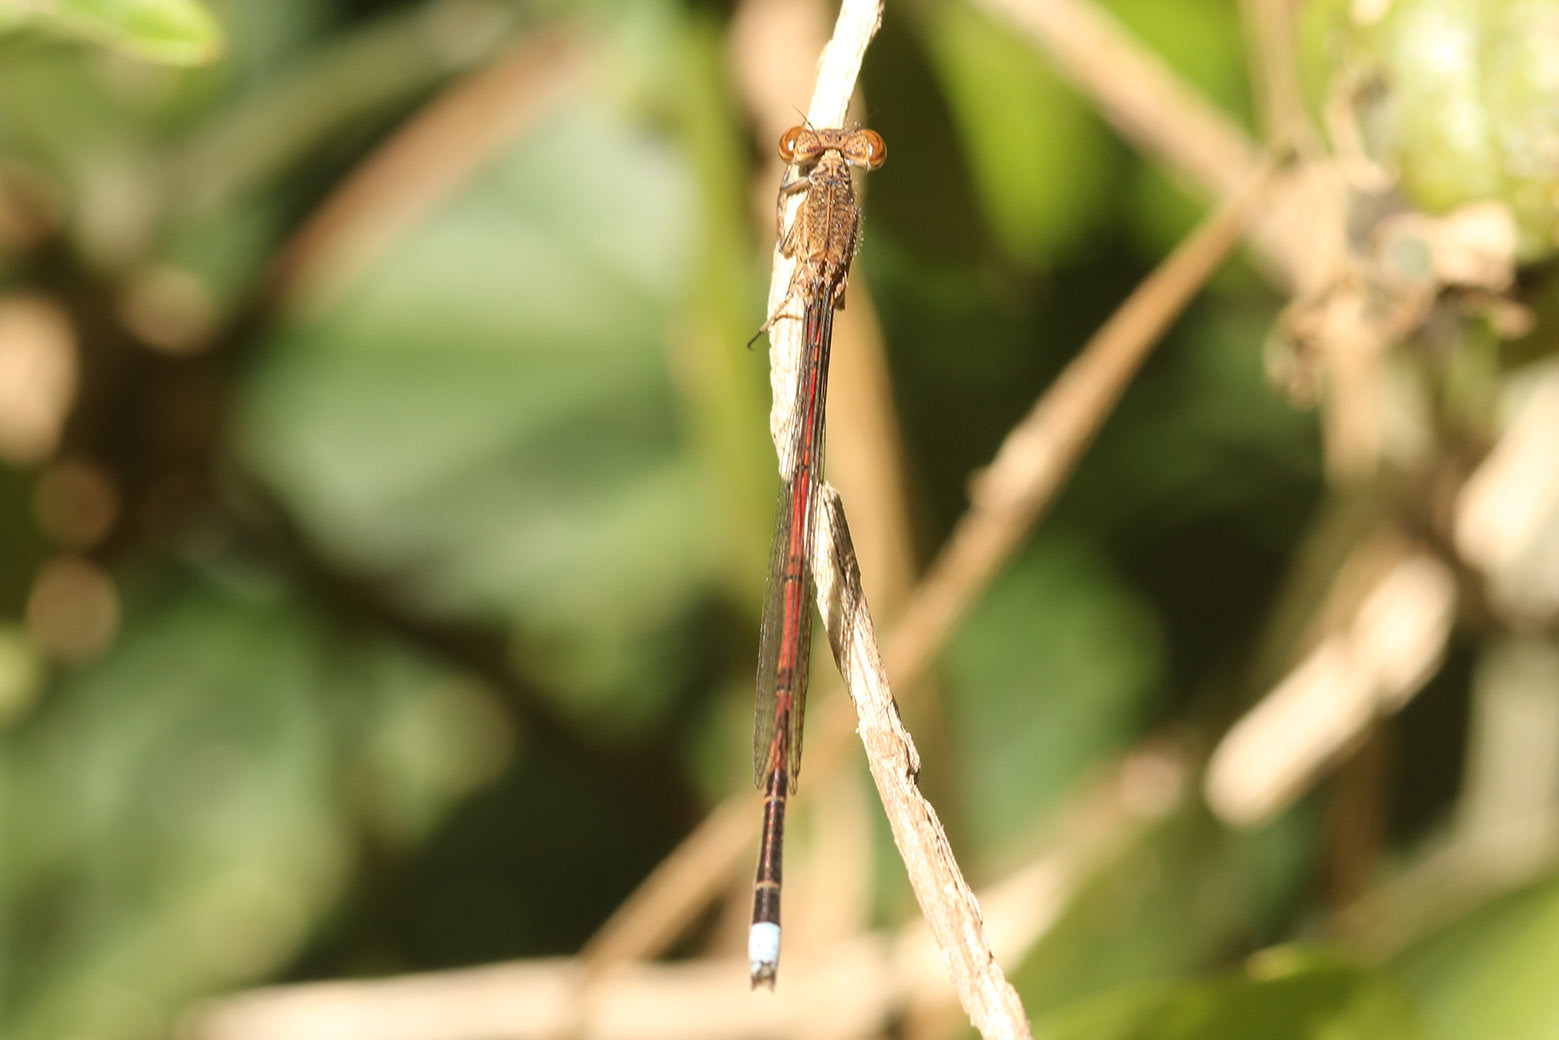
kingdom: Animalia
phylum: Arthropoda
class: Insecta
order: Odonata
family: Coenagrionidae
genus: Oxyagrion
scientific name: Oxyagrion terminale
